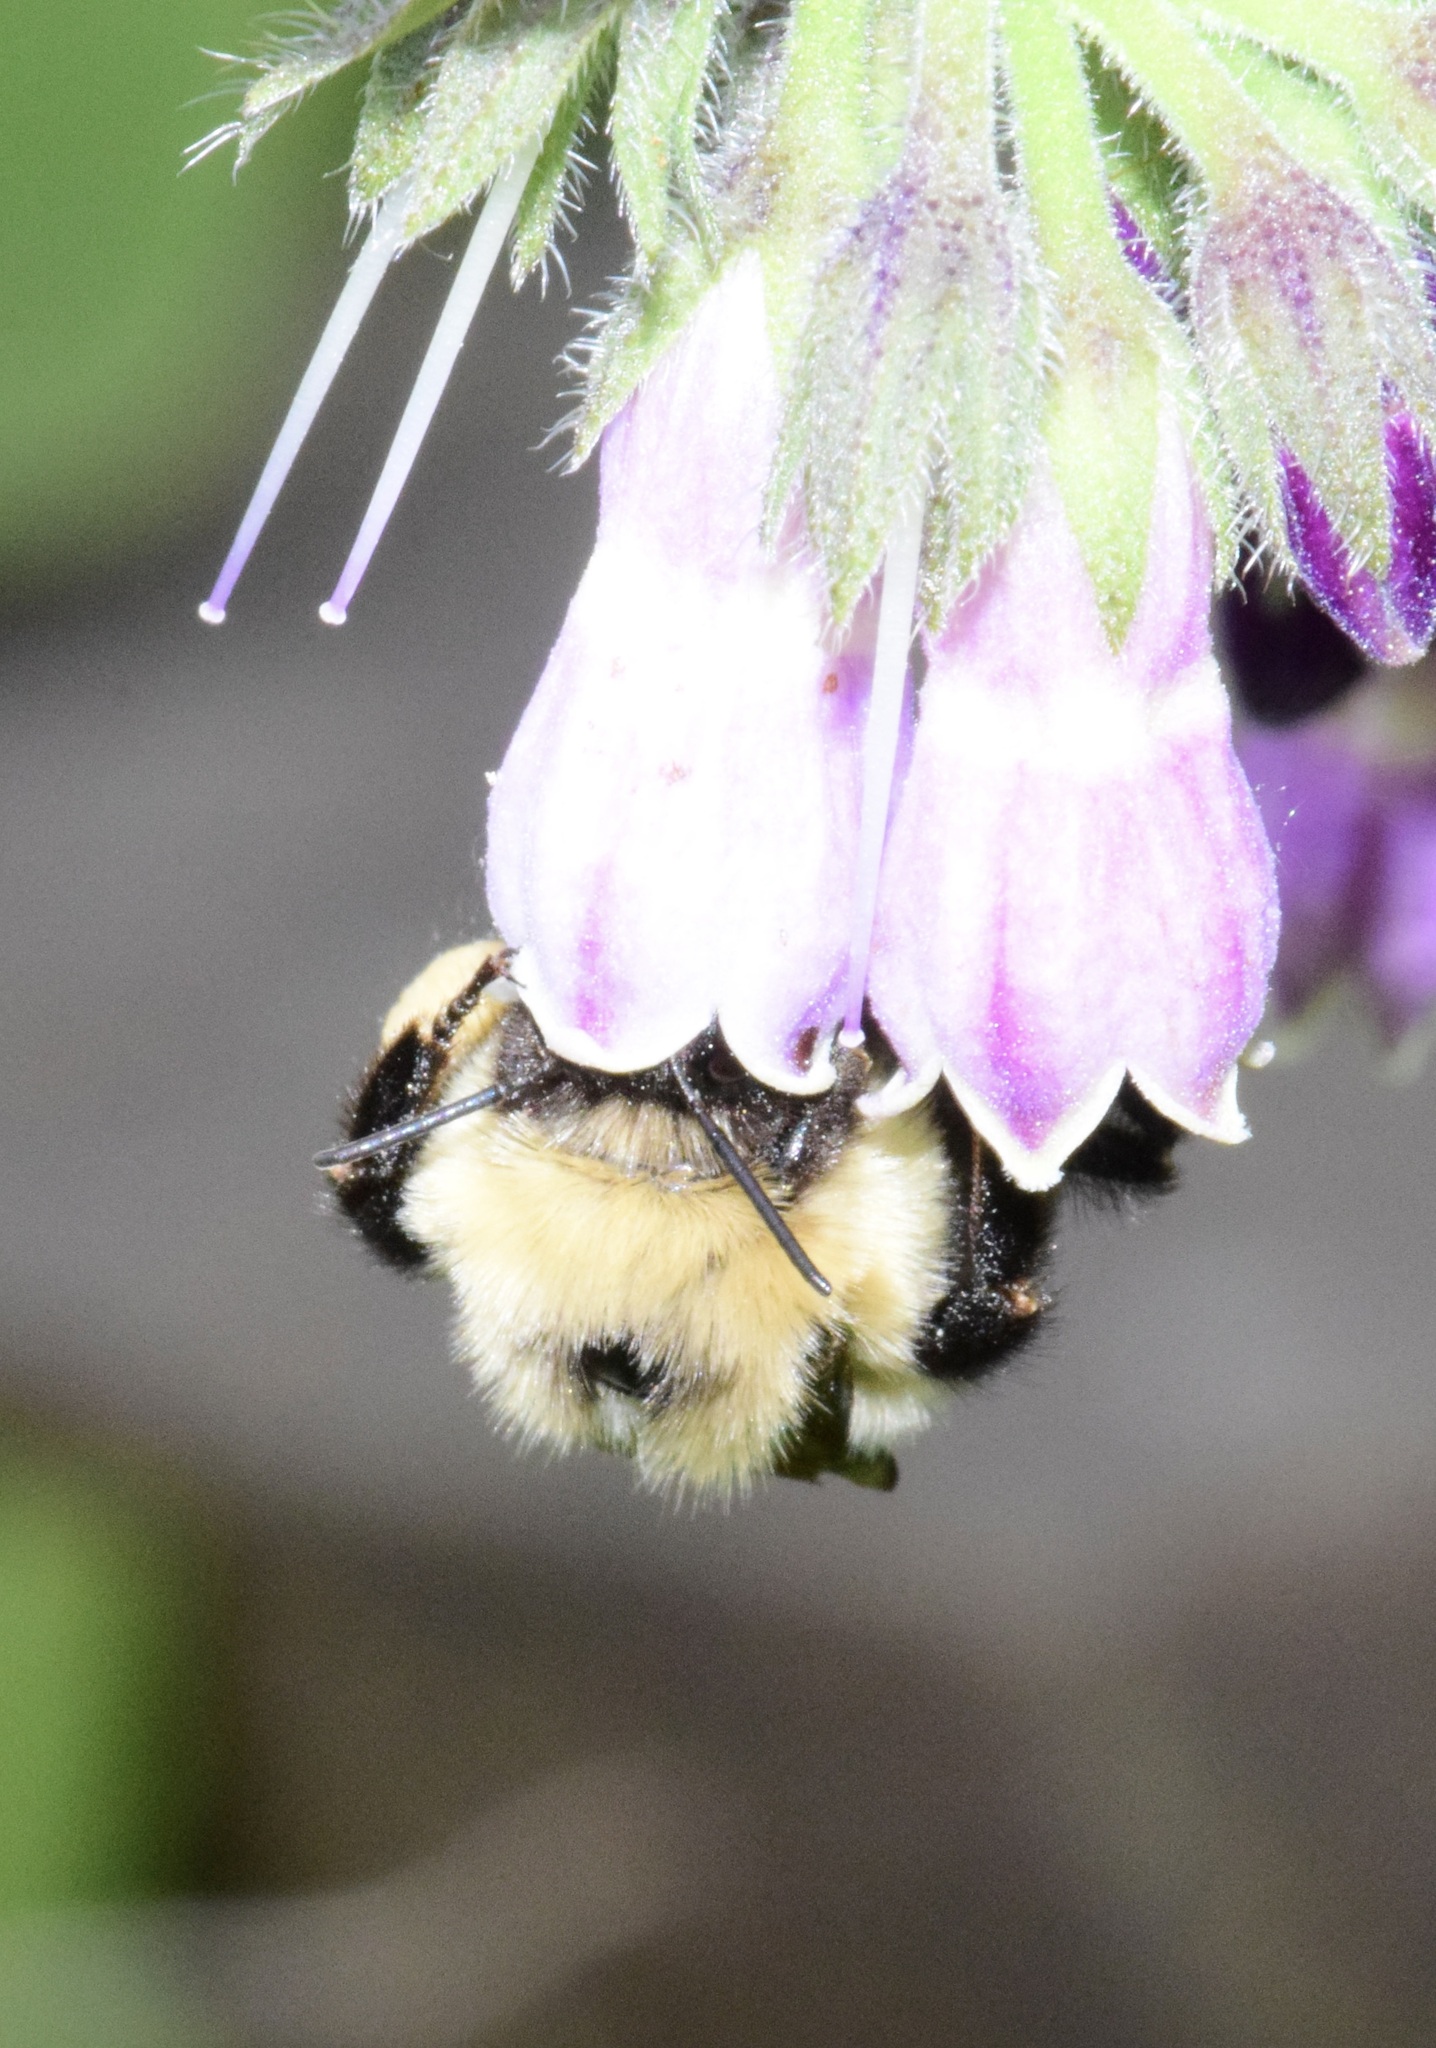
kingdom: Animalia
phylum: Arthropoda
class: Insecta
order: Hymenoptera
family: Apidae
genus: Pyrobombus
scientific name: Pyrobombus
